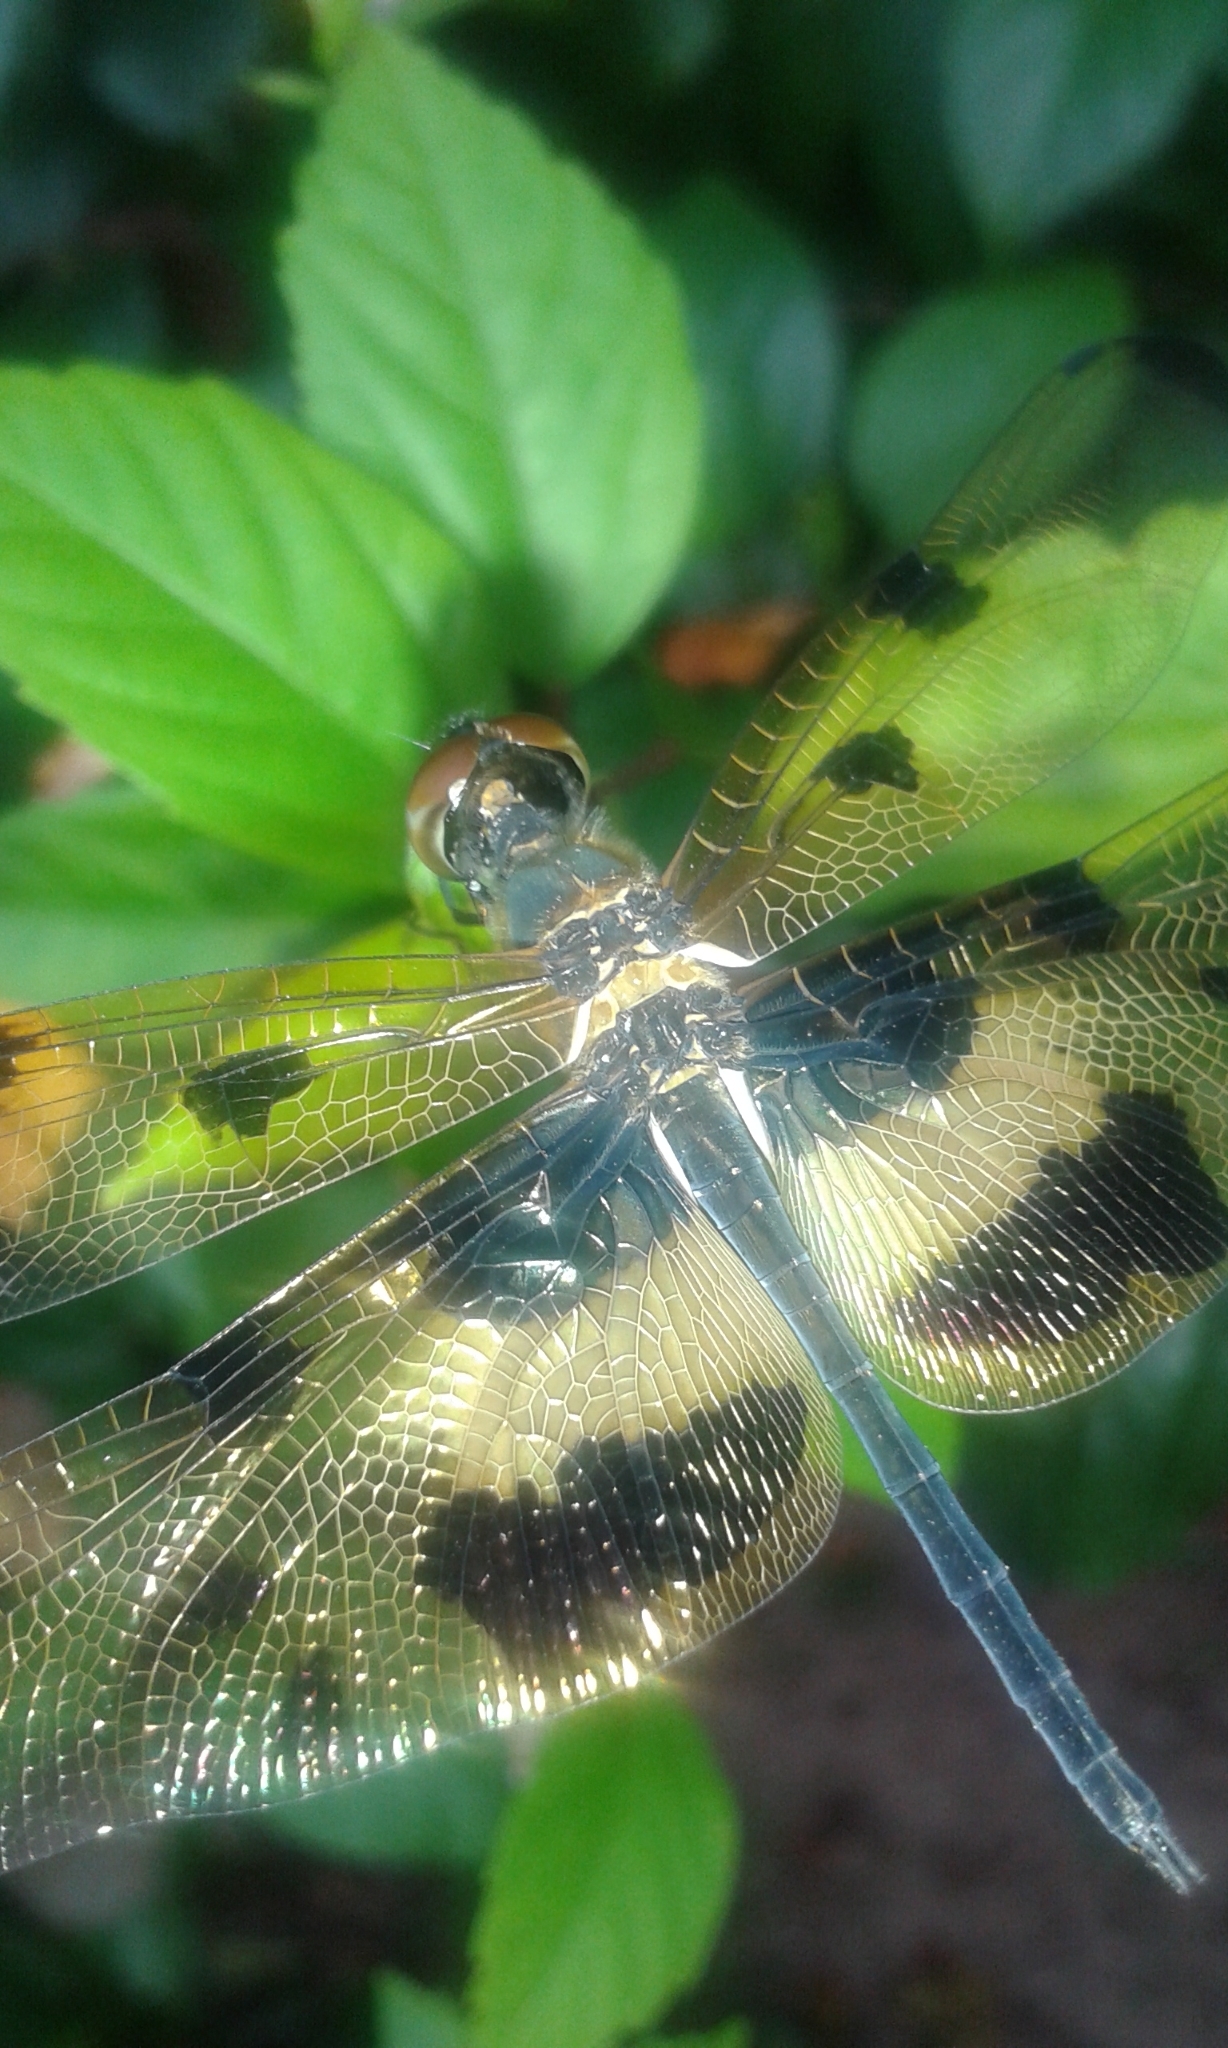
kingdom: Animalia
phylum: Arthropoda
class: Insecta
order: Odonata
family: Libellulidae
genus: Rhyothemis
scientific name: Rhyothemis variegata
